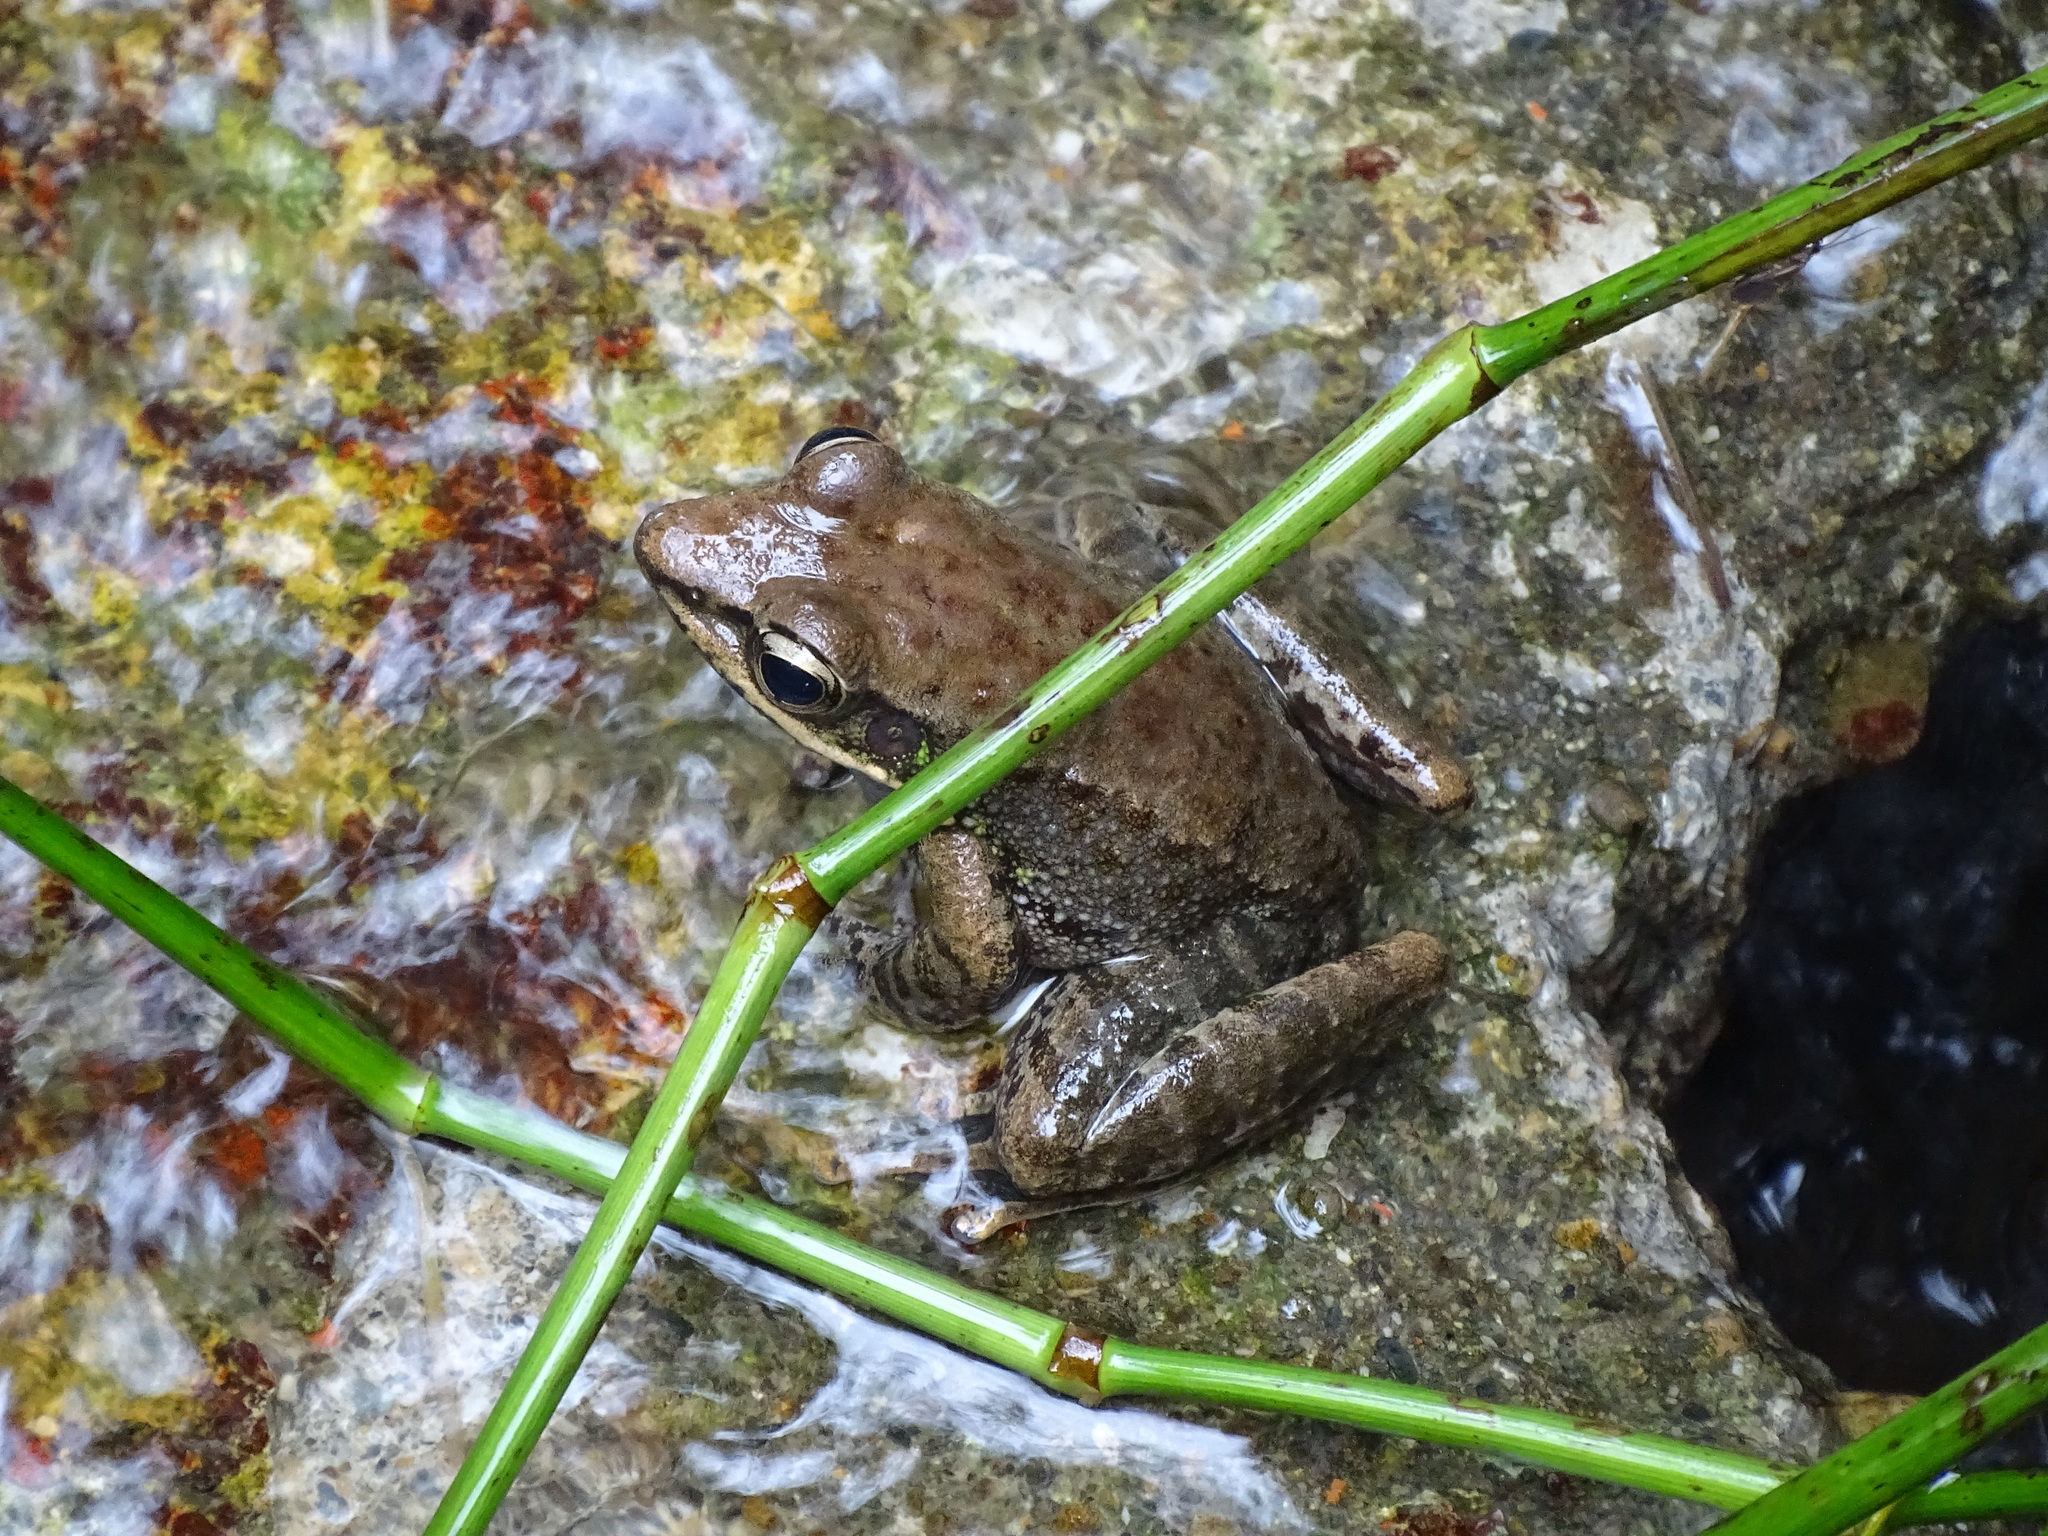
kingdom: Animalia
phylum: Chordata
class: Amphibia
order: Anura
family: Ranidae
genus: Odorrana
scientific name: Odorrana swinhoana
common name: Bangkimtsing frog
